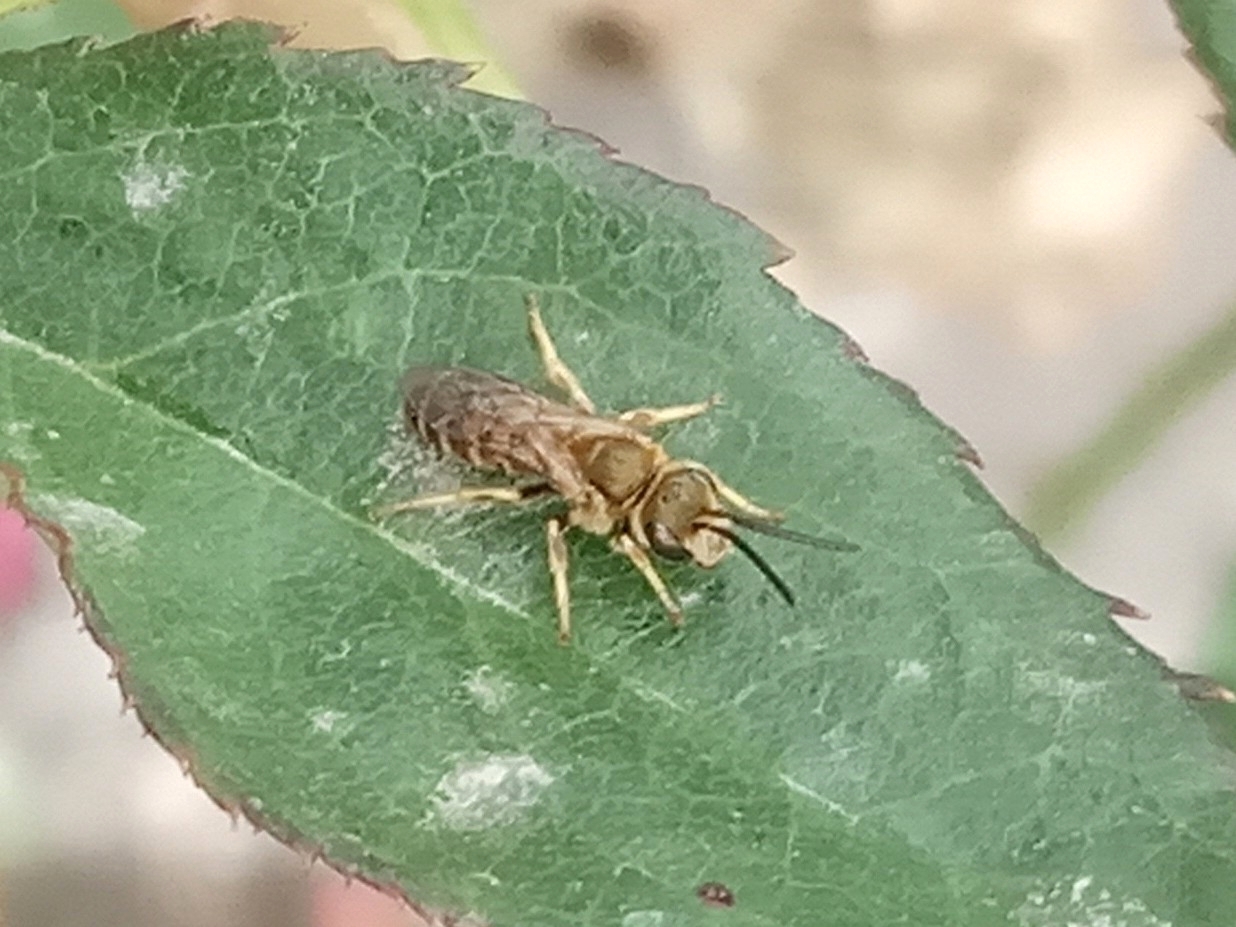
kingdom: Animalia
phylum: Arthropoda
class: Insecta
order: Hymenoptera
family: Halictidae
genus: Seladonia
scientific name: Seladonia
